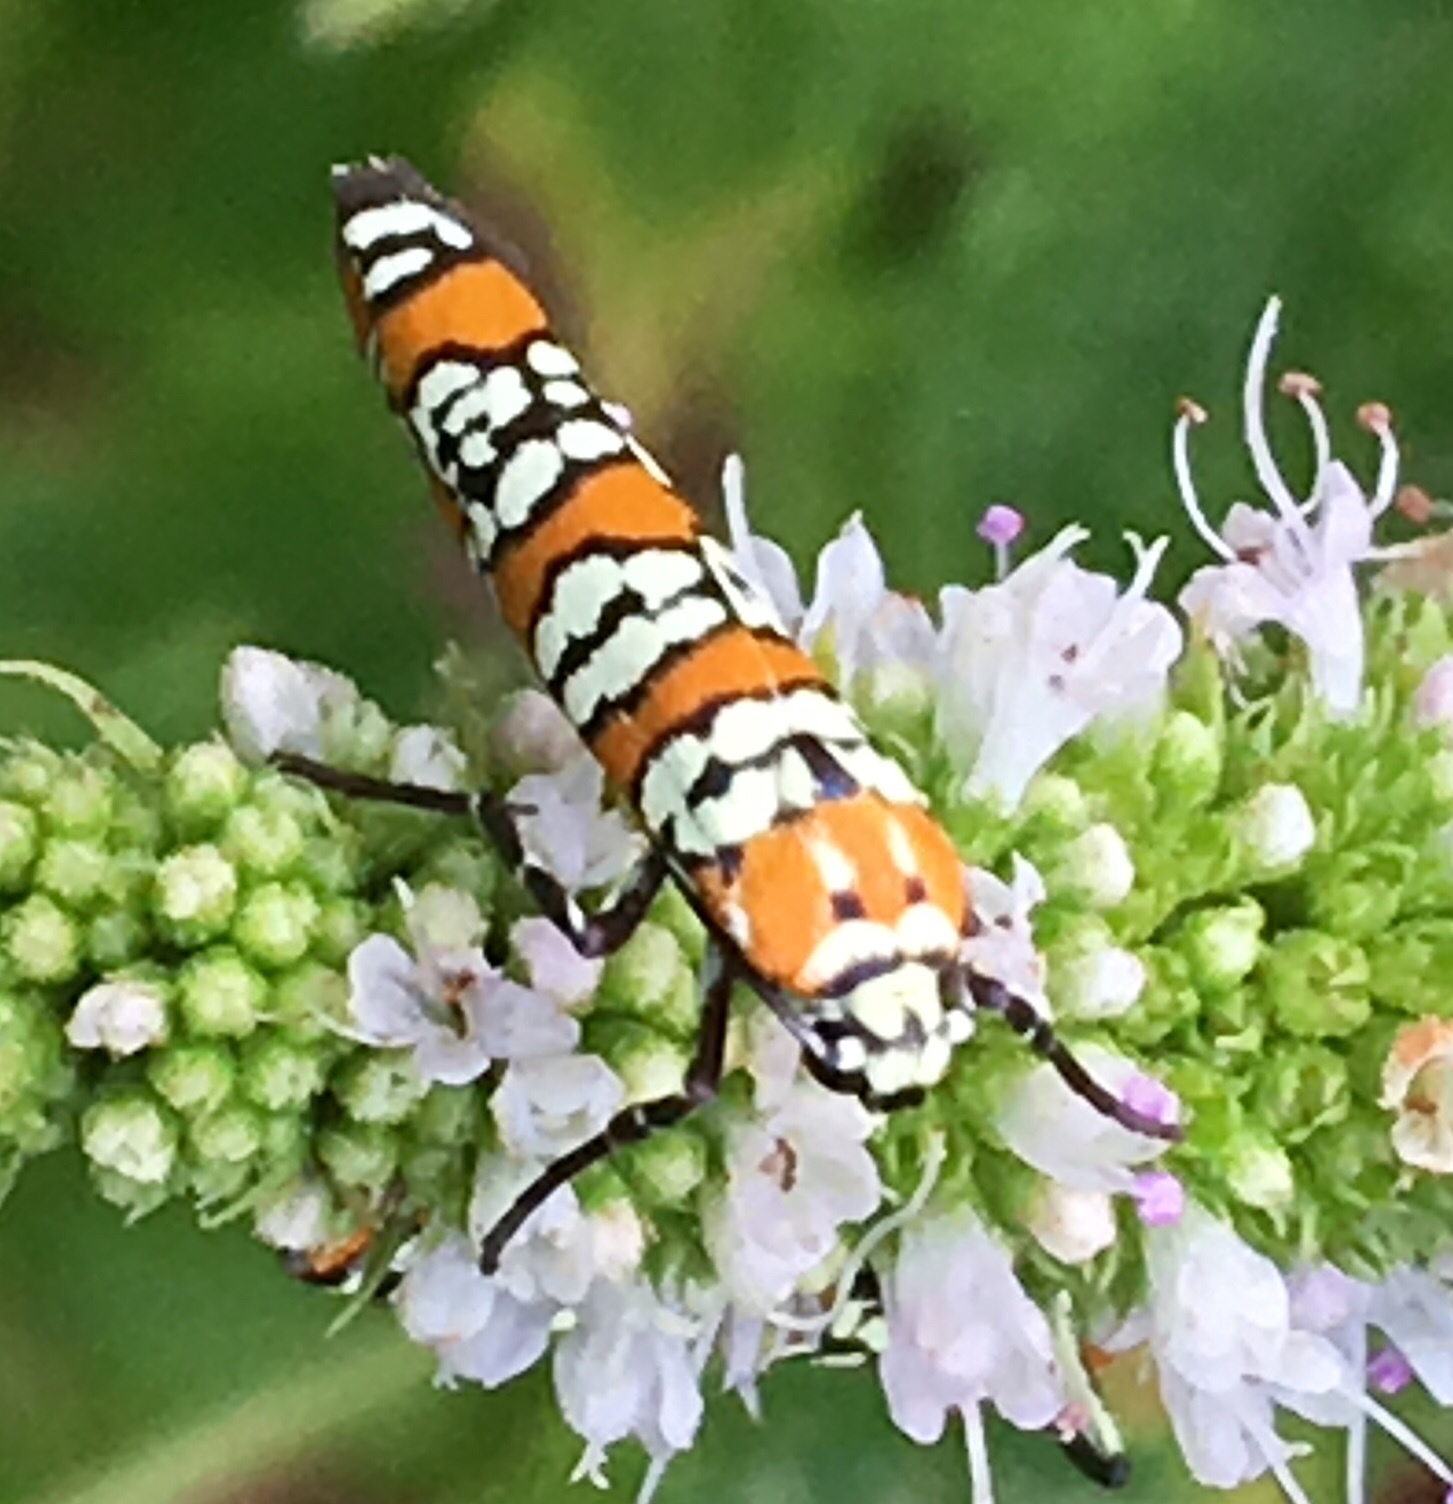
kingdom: Animalia
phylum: Arthropoda
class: Insecta
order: Lepidoptera
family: Attevidae
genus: Atteva
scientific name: Atteva punctella
